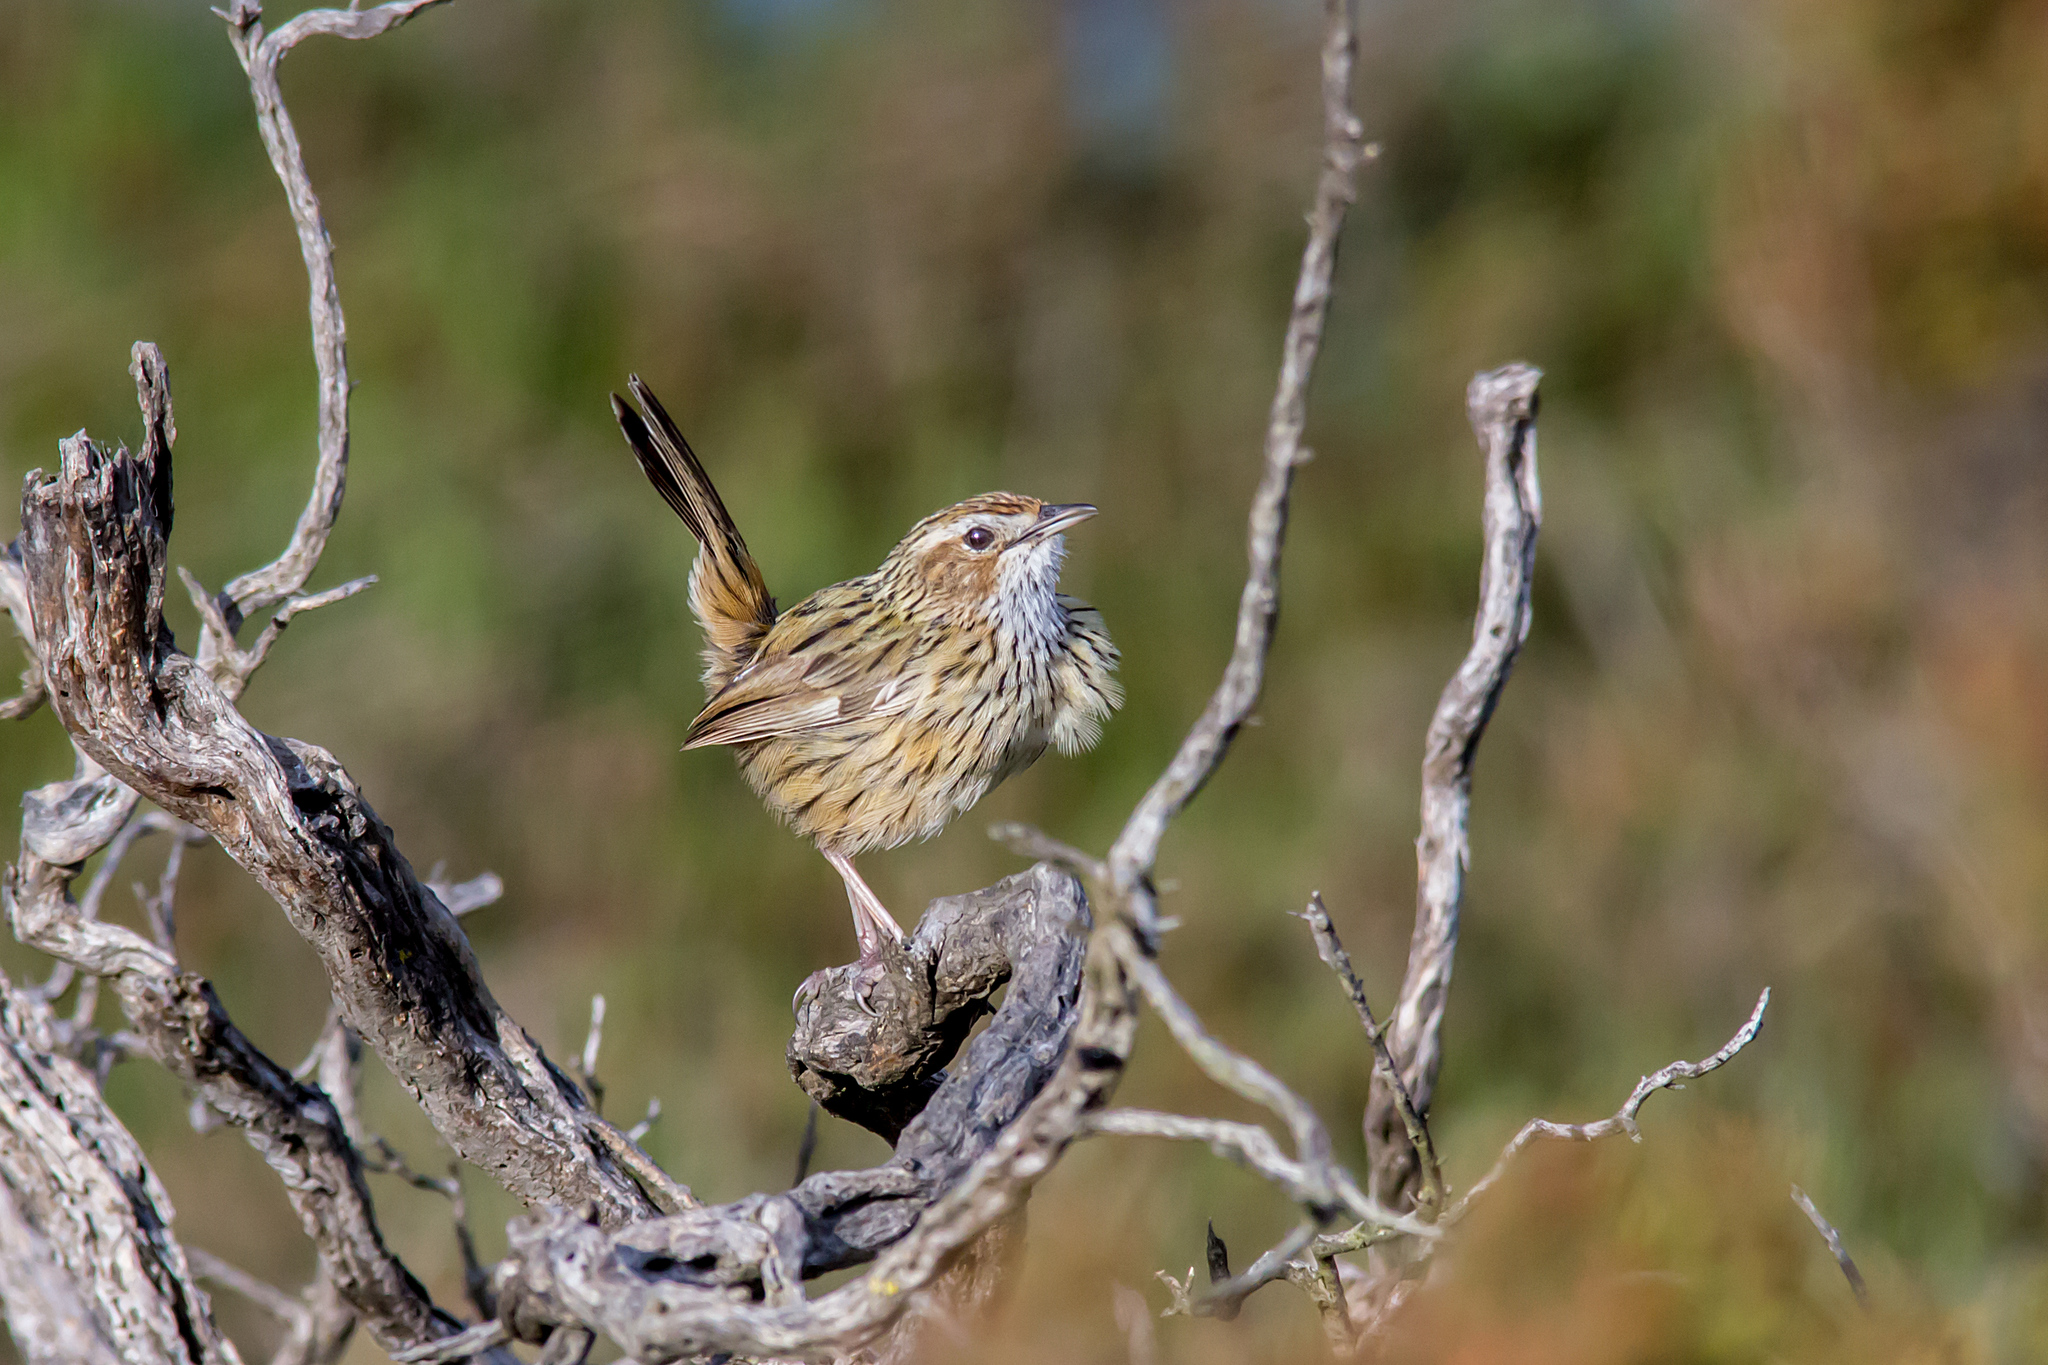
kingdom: Animalia
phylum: Chordata
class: Aves
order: Passeriformes
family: Acanthizidae
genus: Calamanthus
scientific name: Calamanthus fuliginosus
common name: Striated fieldwren
